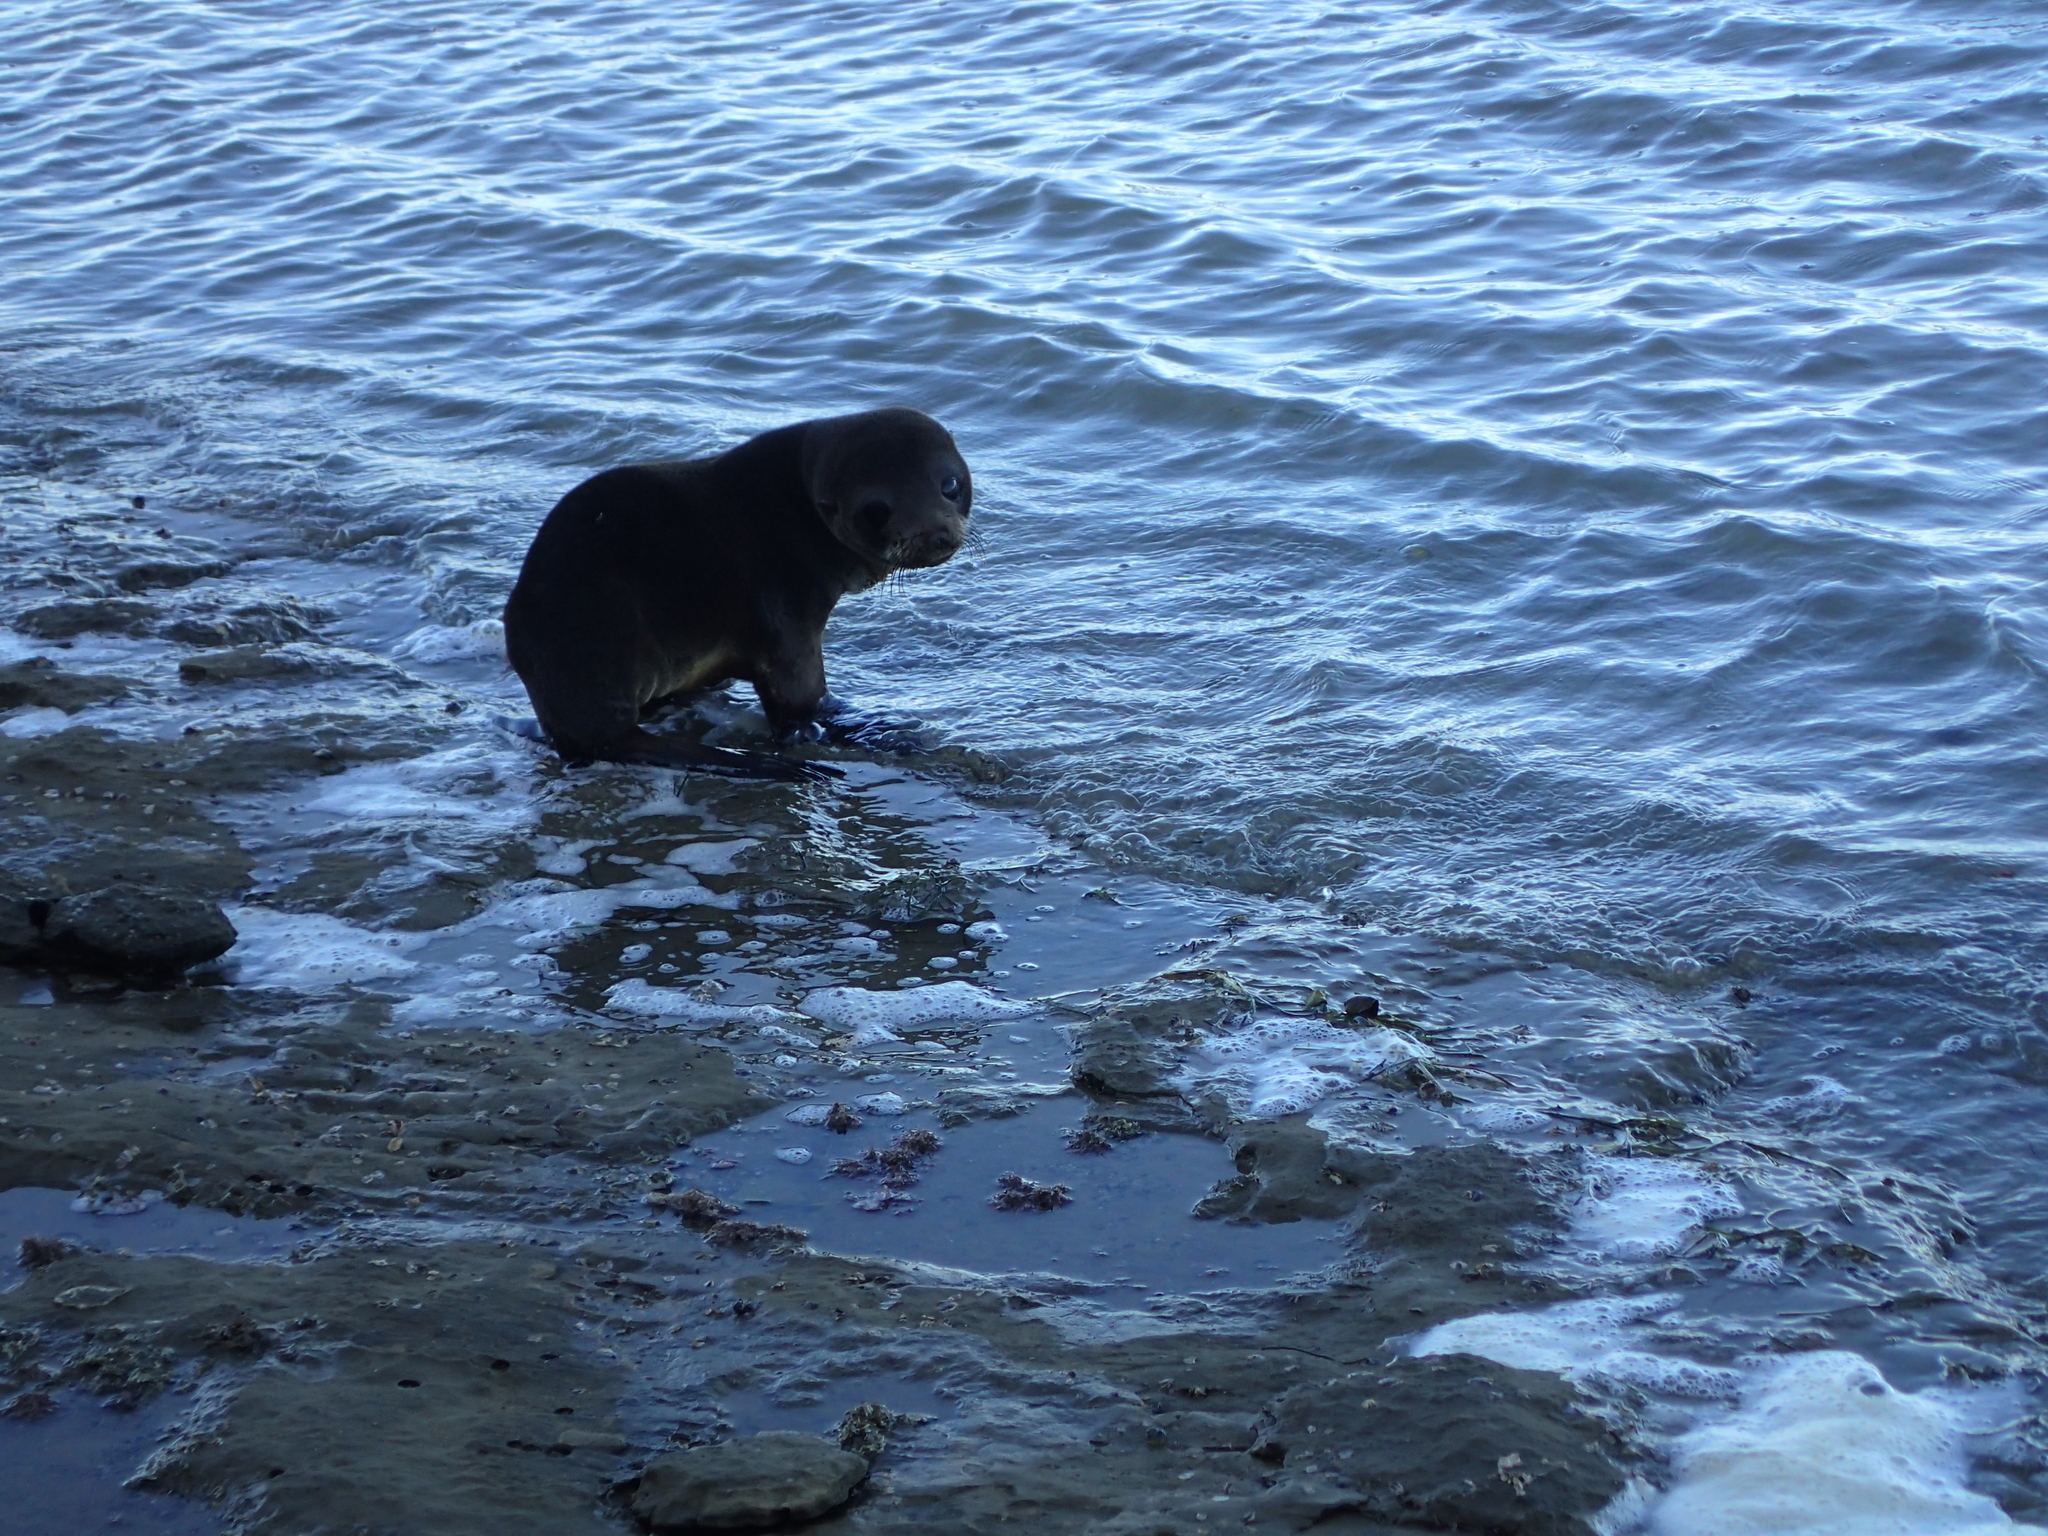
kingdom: Animalia
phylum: Chordata
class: Mammalia
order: Carnivora
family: Otariidae
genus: Arctocephalus
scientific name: Arctocephalus forsteri
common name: New zealand fur seal
